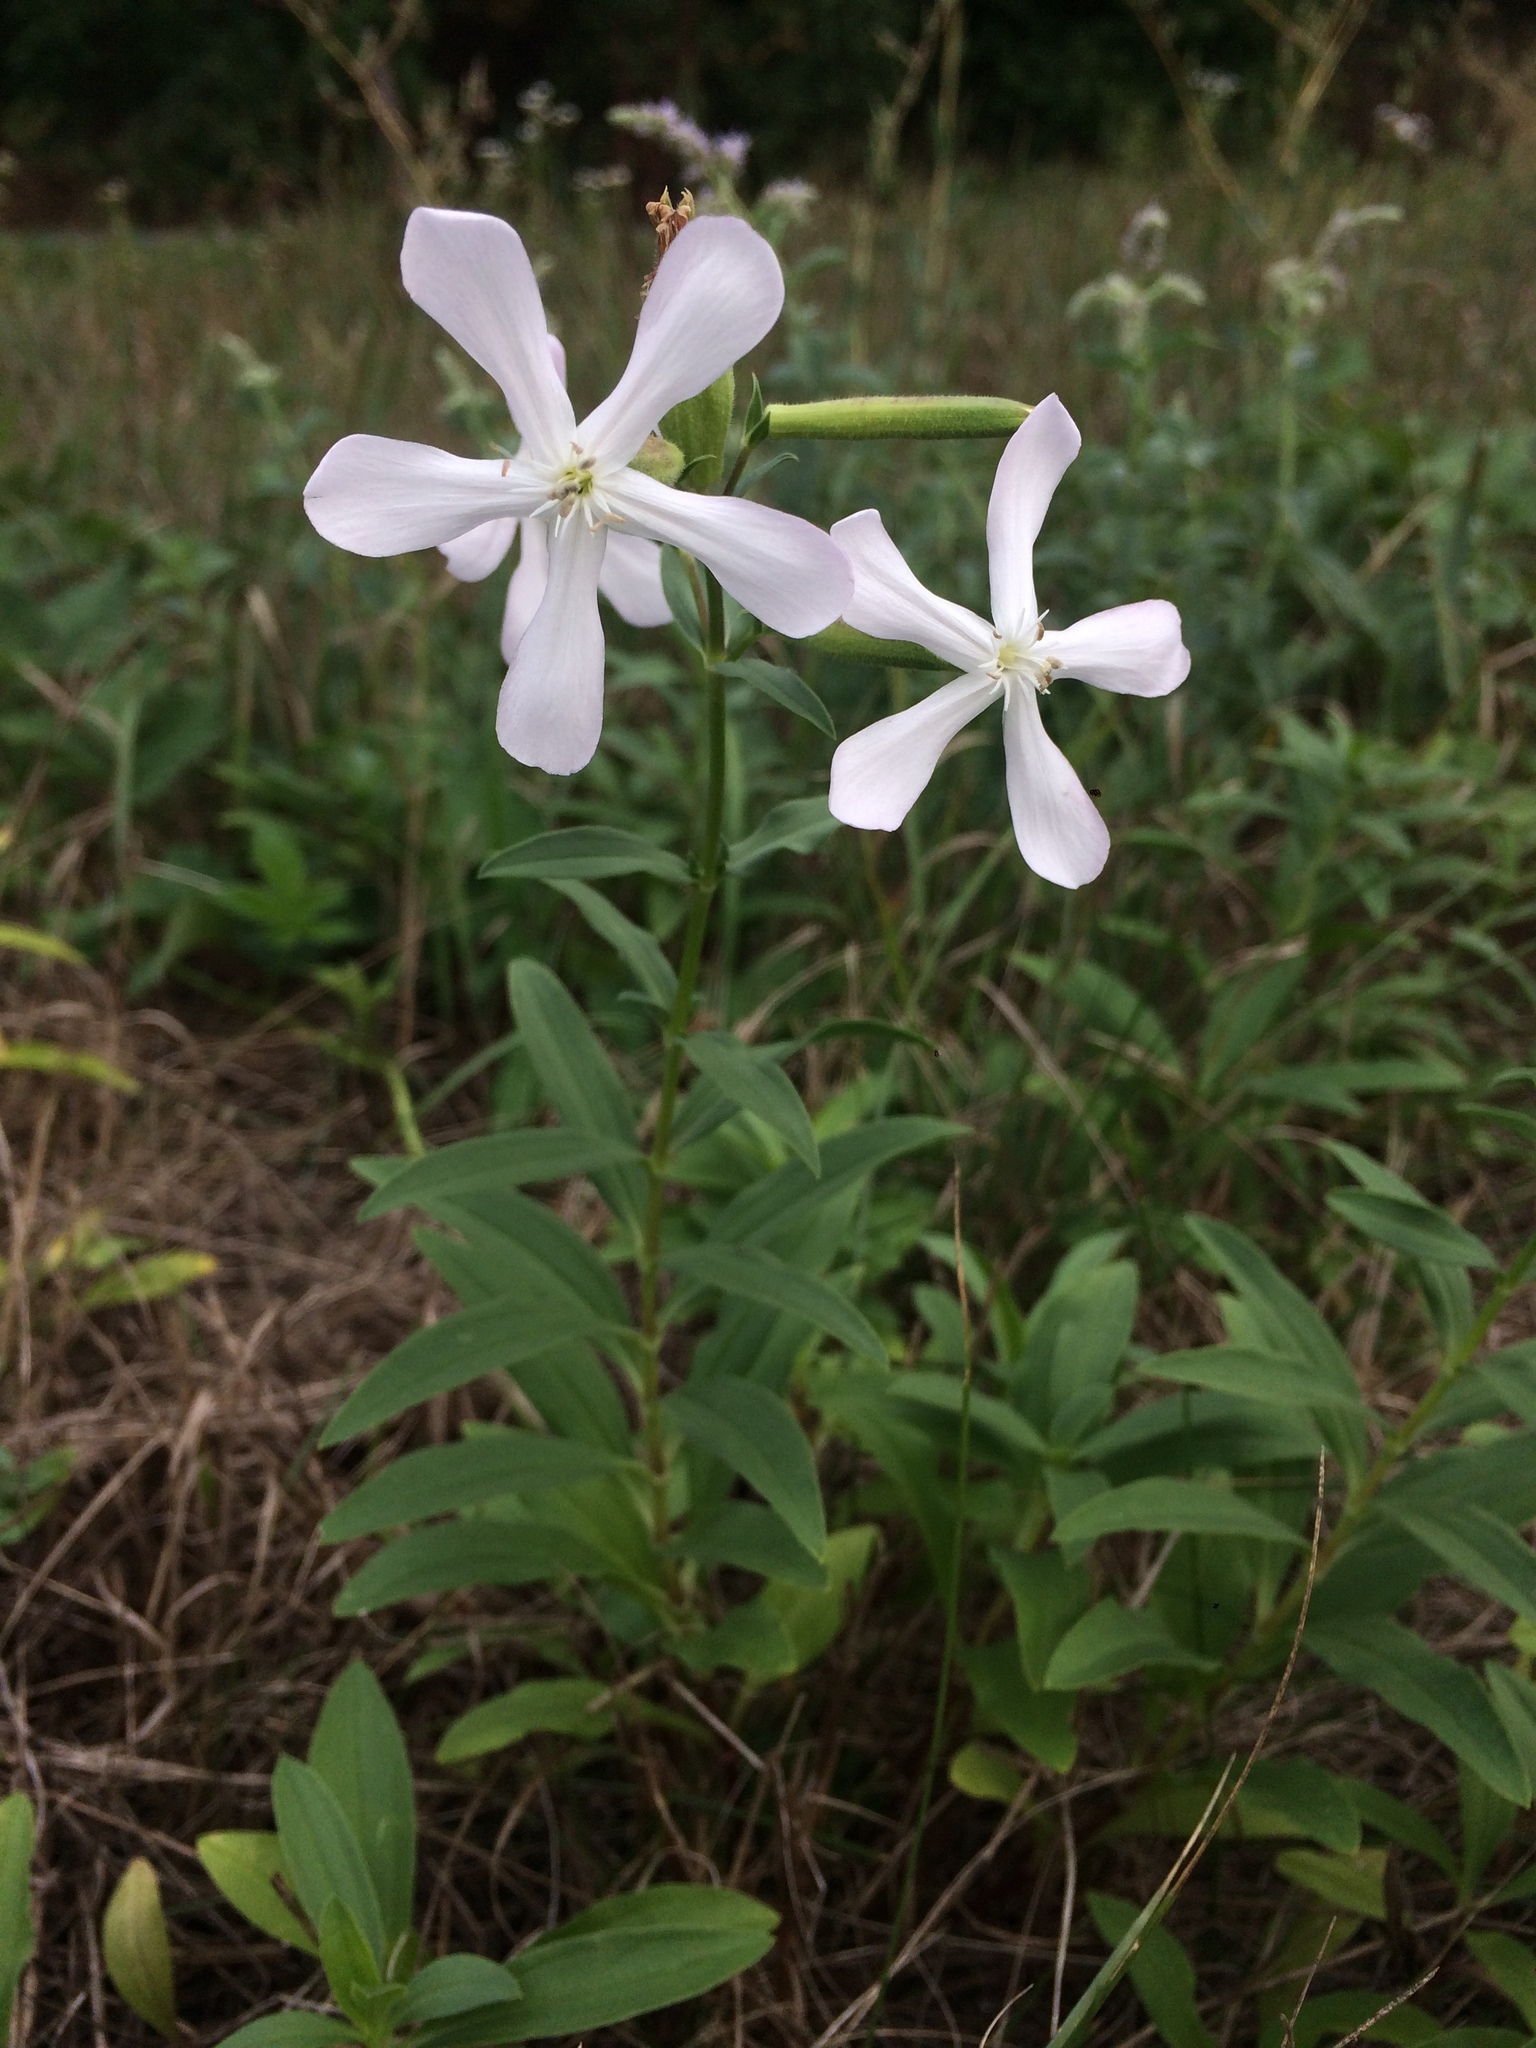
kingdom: Plantae
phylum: Tracheophyta
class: Magnoliopsida
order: Caryophyllales
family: Caryophyllaceae
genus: Saponaria
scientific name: Saponaria officinalis
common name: Soapwort
